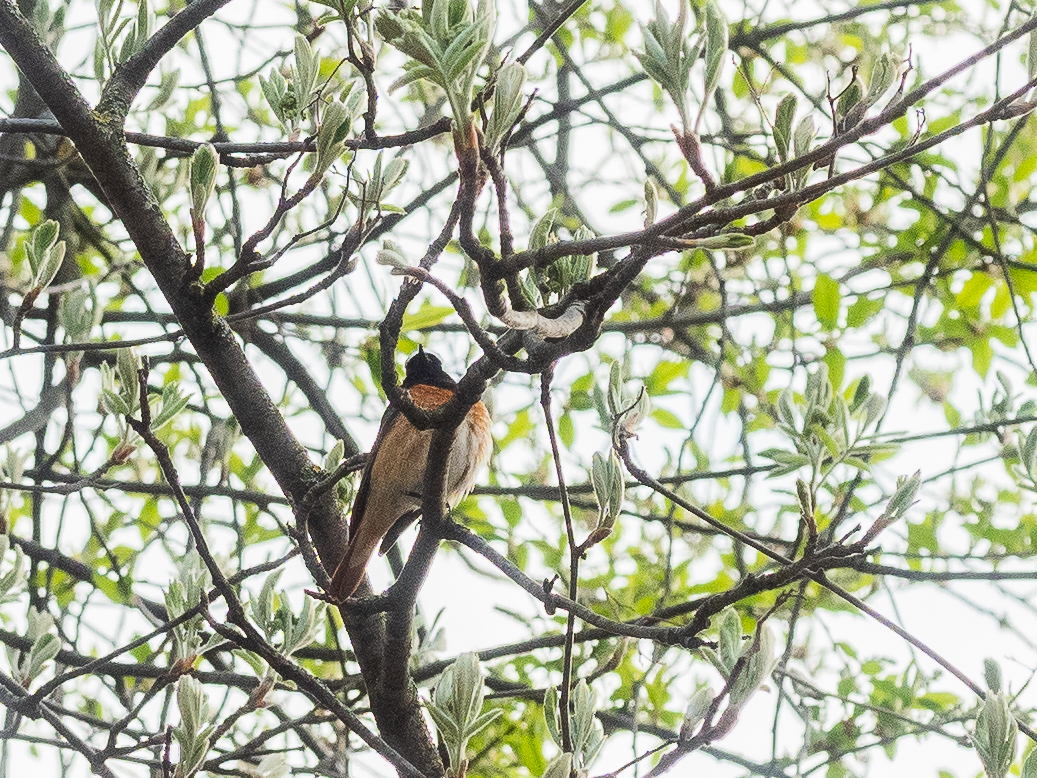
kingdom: Animalia
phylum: Chordata
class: Aves
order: Passeriformes
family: Muscicapidae
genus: Phoenicurus
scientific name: Phoenicurus phoenicurus
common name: Common redstart
